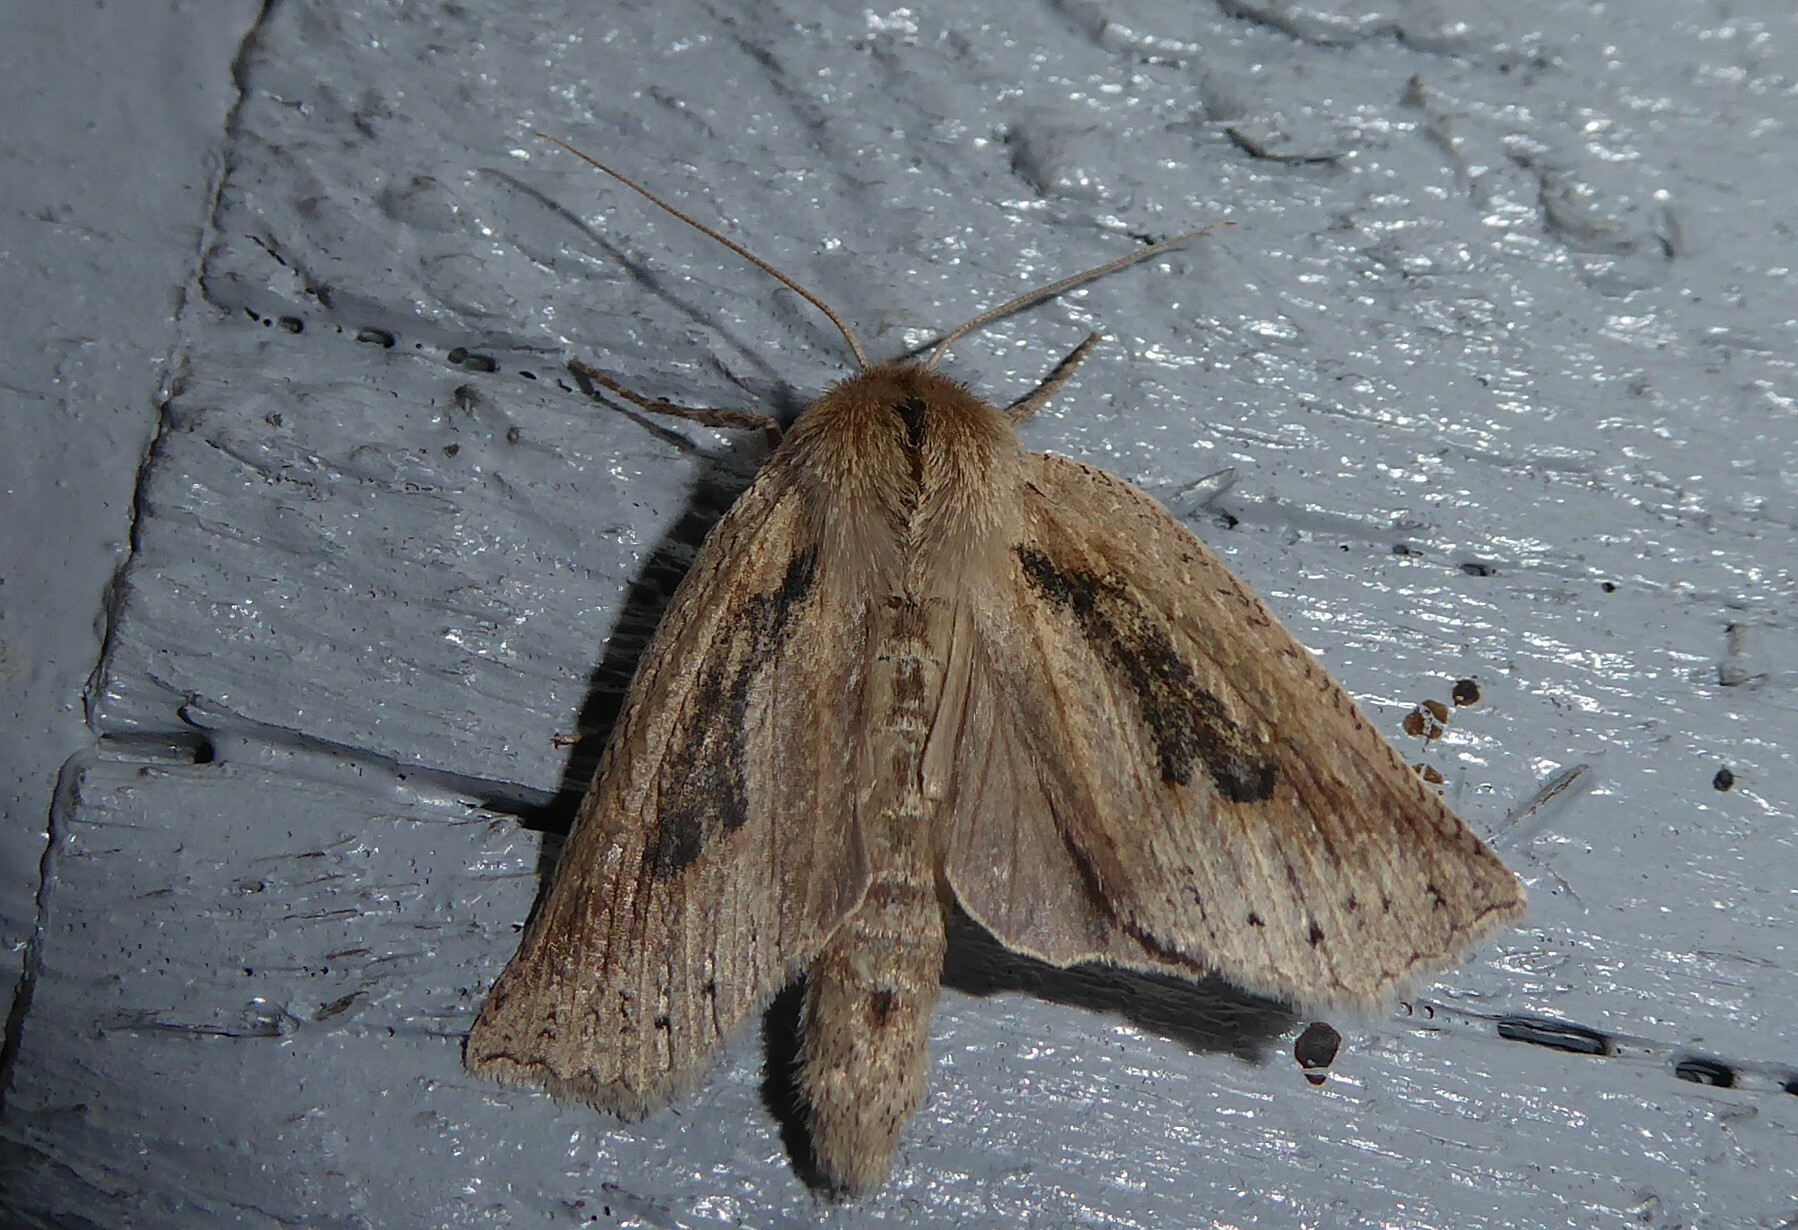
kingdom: Animalia
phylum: Arthropoda
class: Insecta
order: Lepidoptera
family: Geometridae
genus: Declana
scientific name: Declana leptomera
